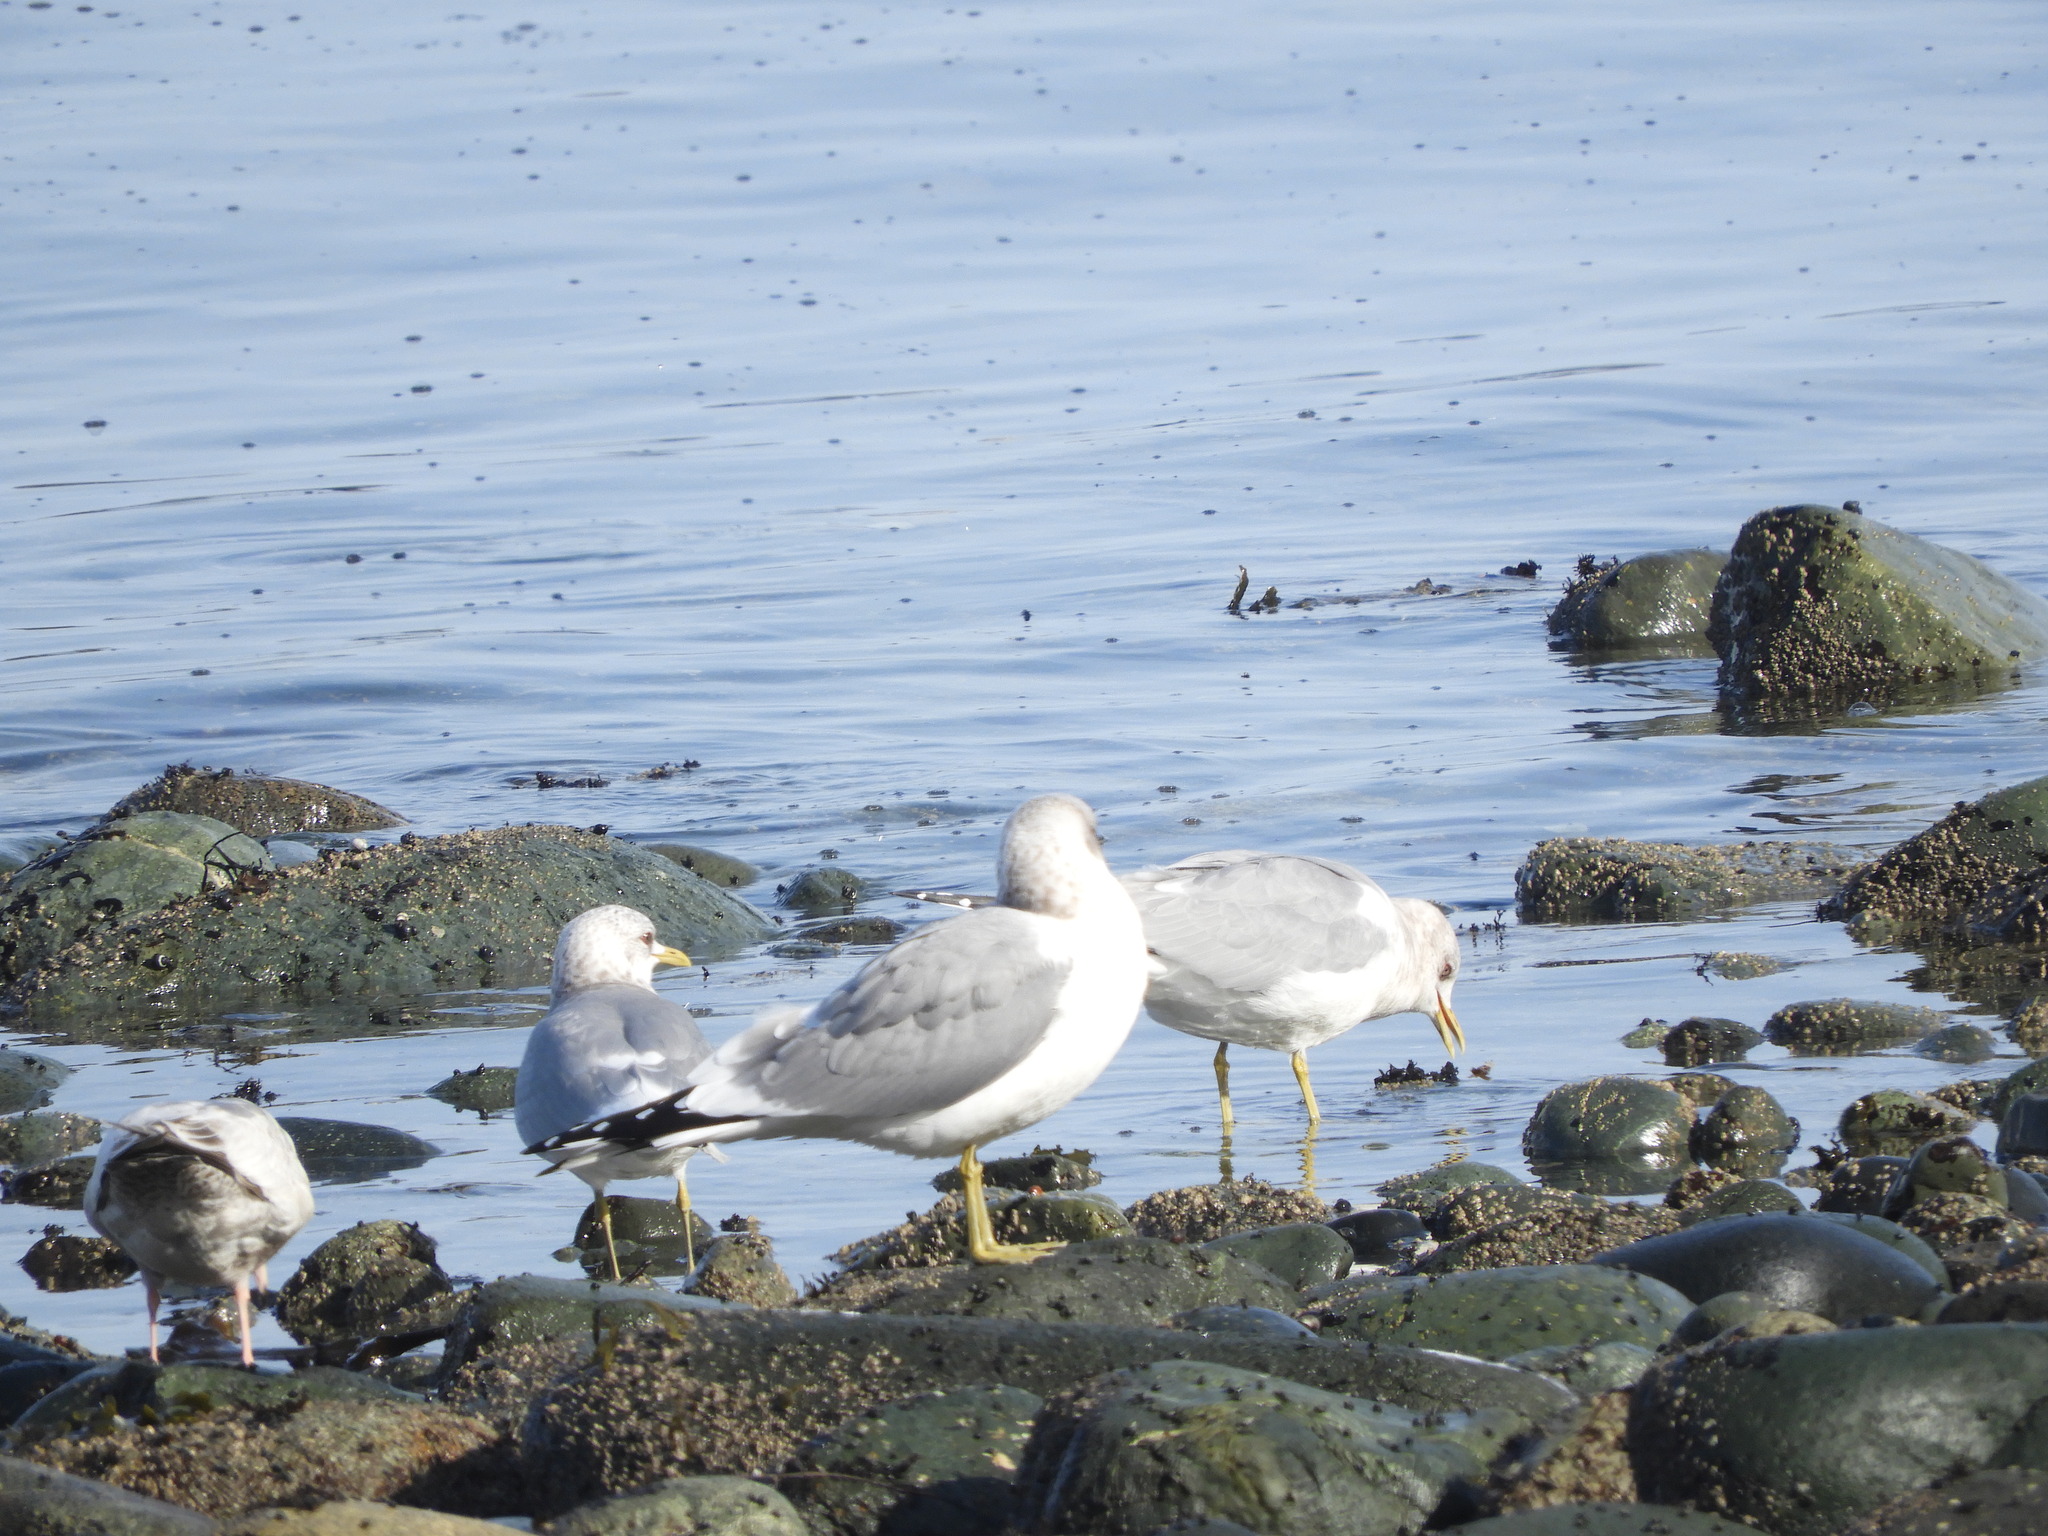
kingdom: Animalia
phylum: Chordata
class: Aves
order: Charadriiformes
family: Laridae
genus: Larus
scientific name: Larus brachyrhynchus
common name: Short-billed gull
